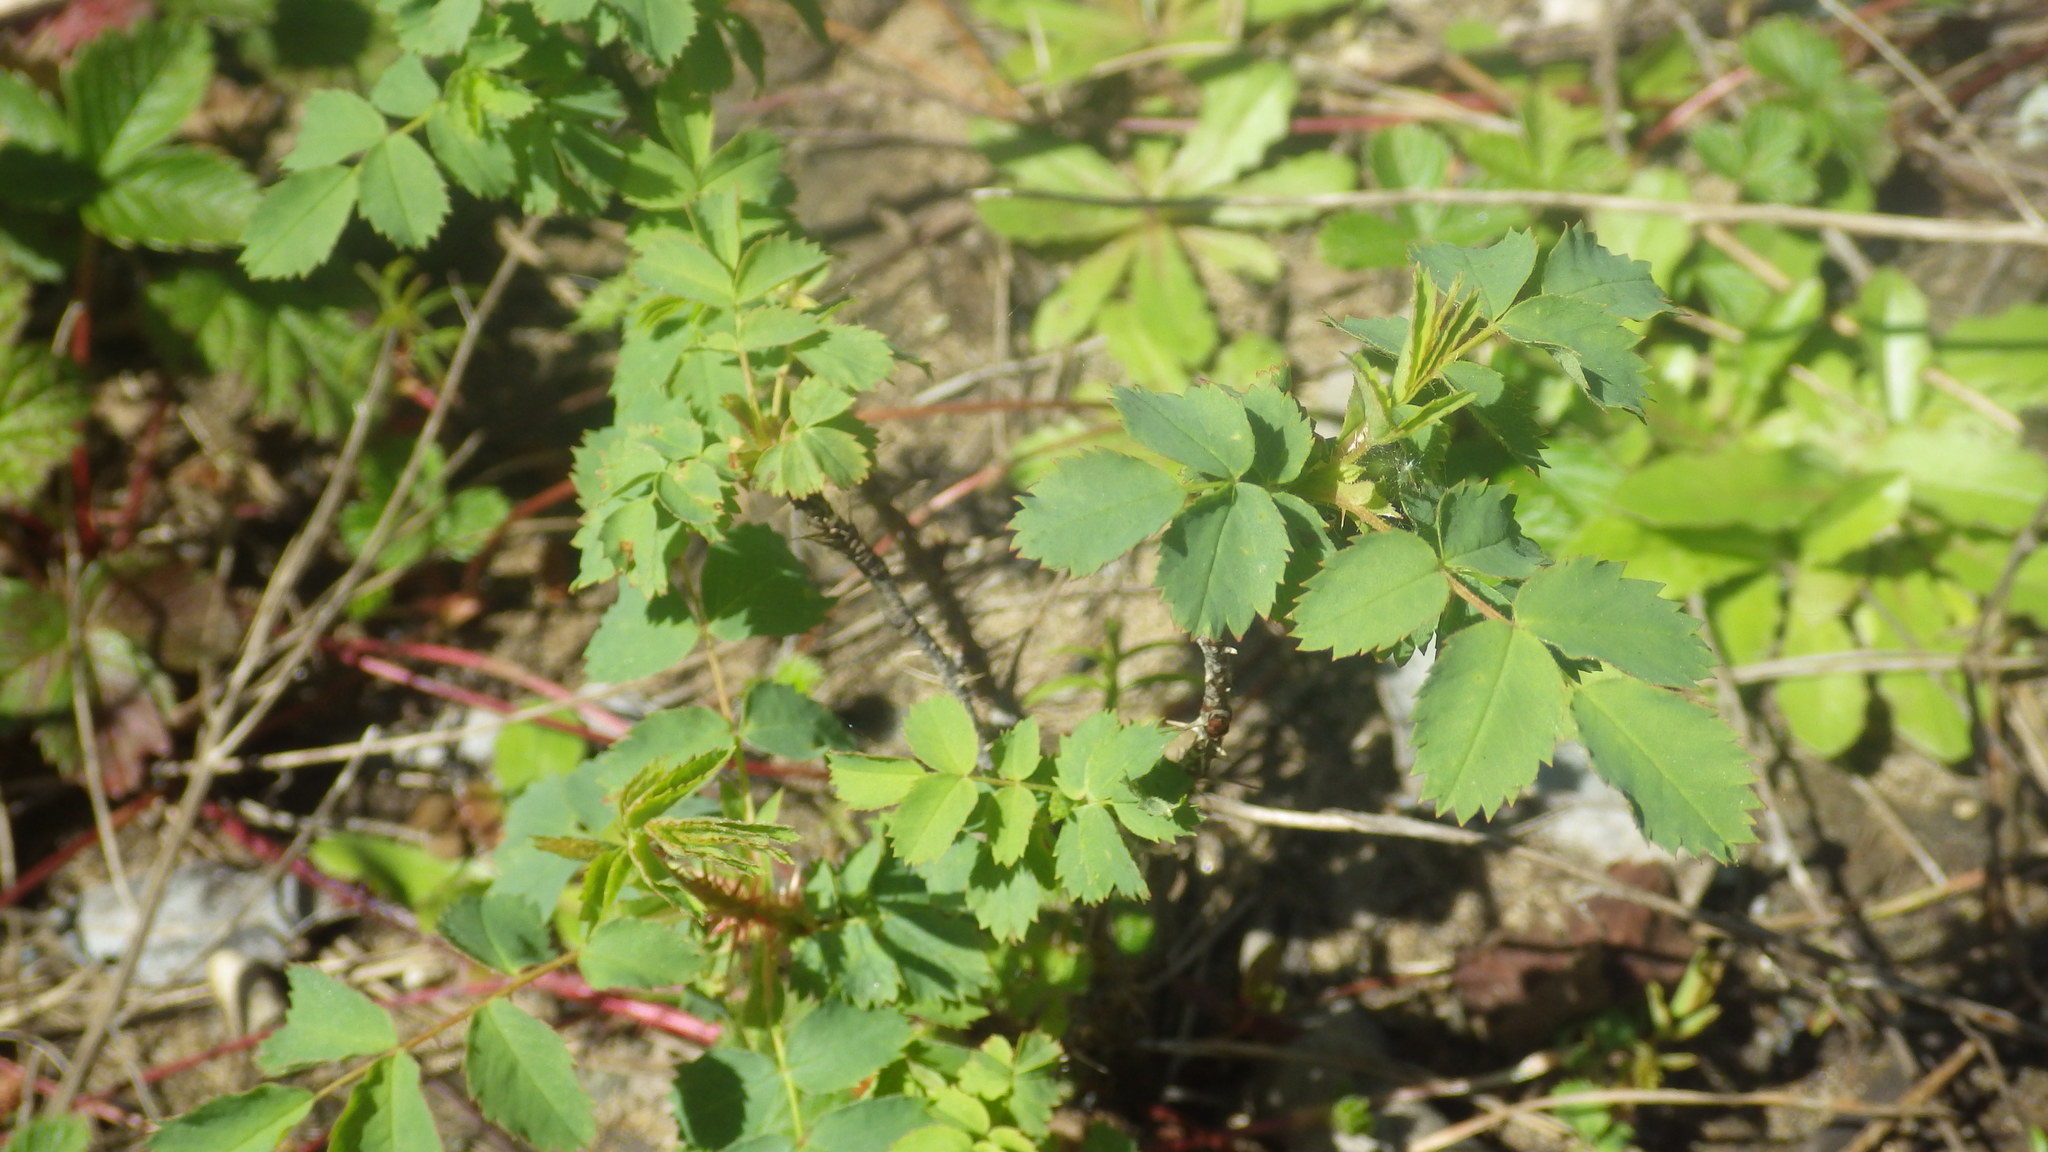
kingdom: Plantae
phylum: Tracheophyta
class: Magnoliopsida
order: Rosales
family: Rosaceae
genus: Rosa
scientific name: Rosa californica
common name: California rose
